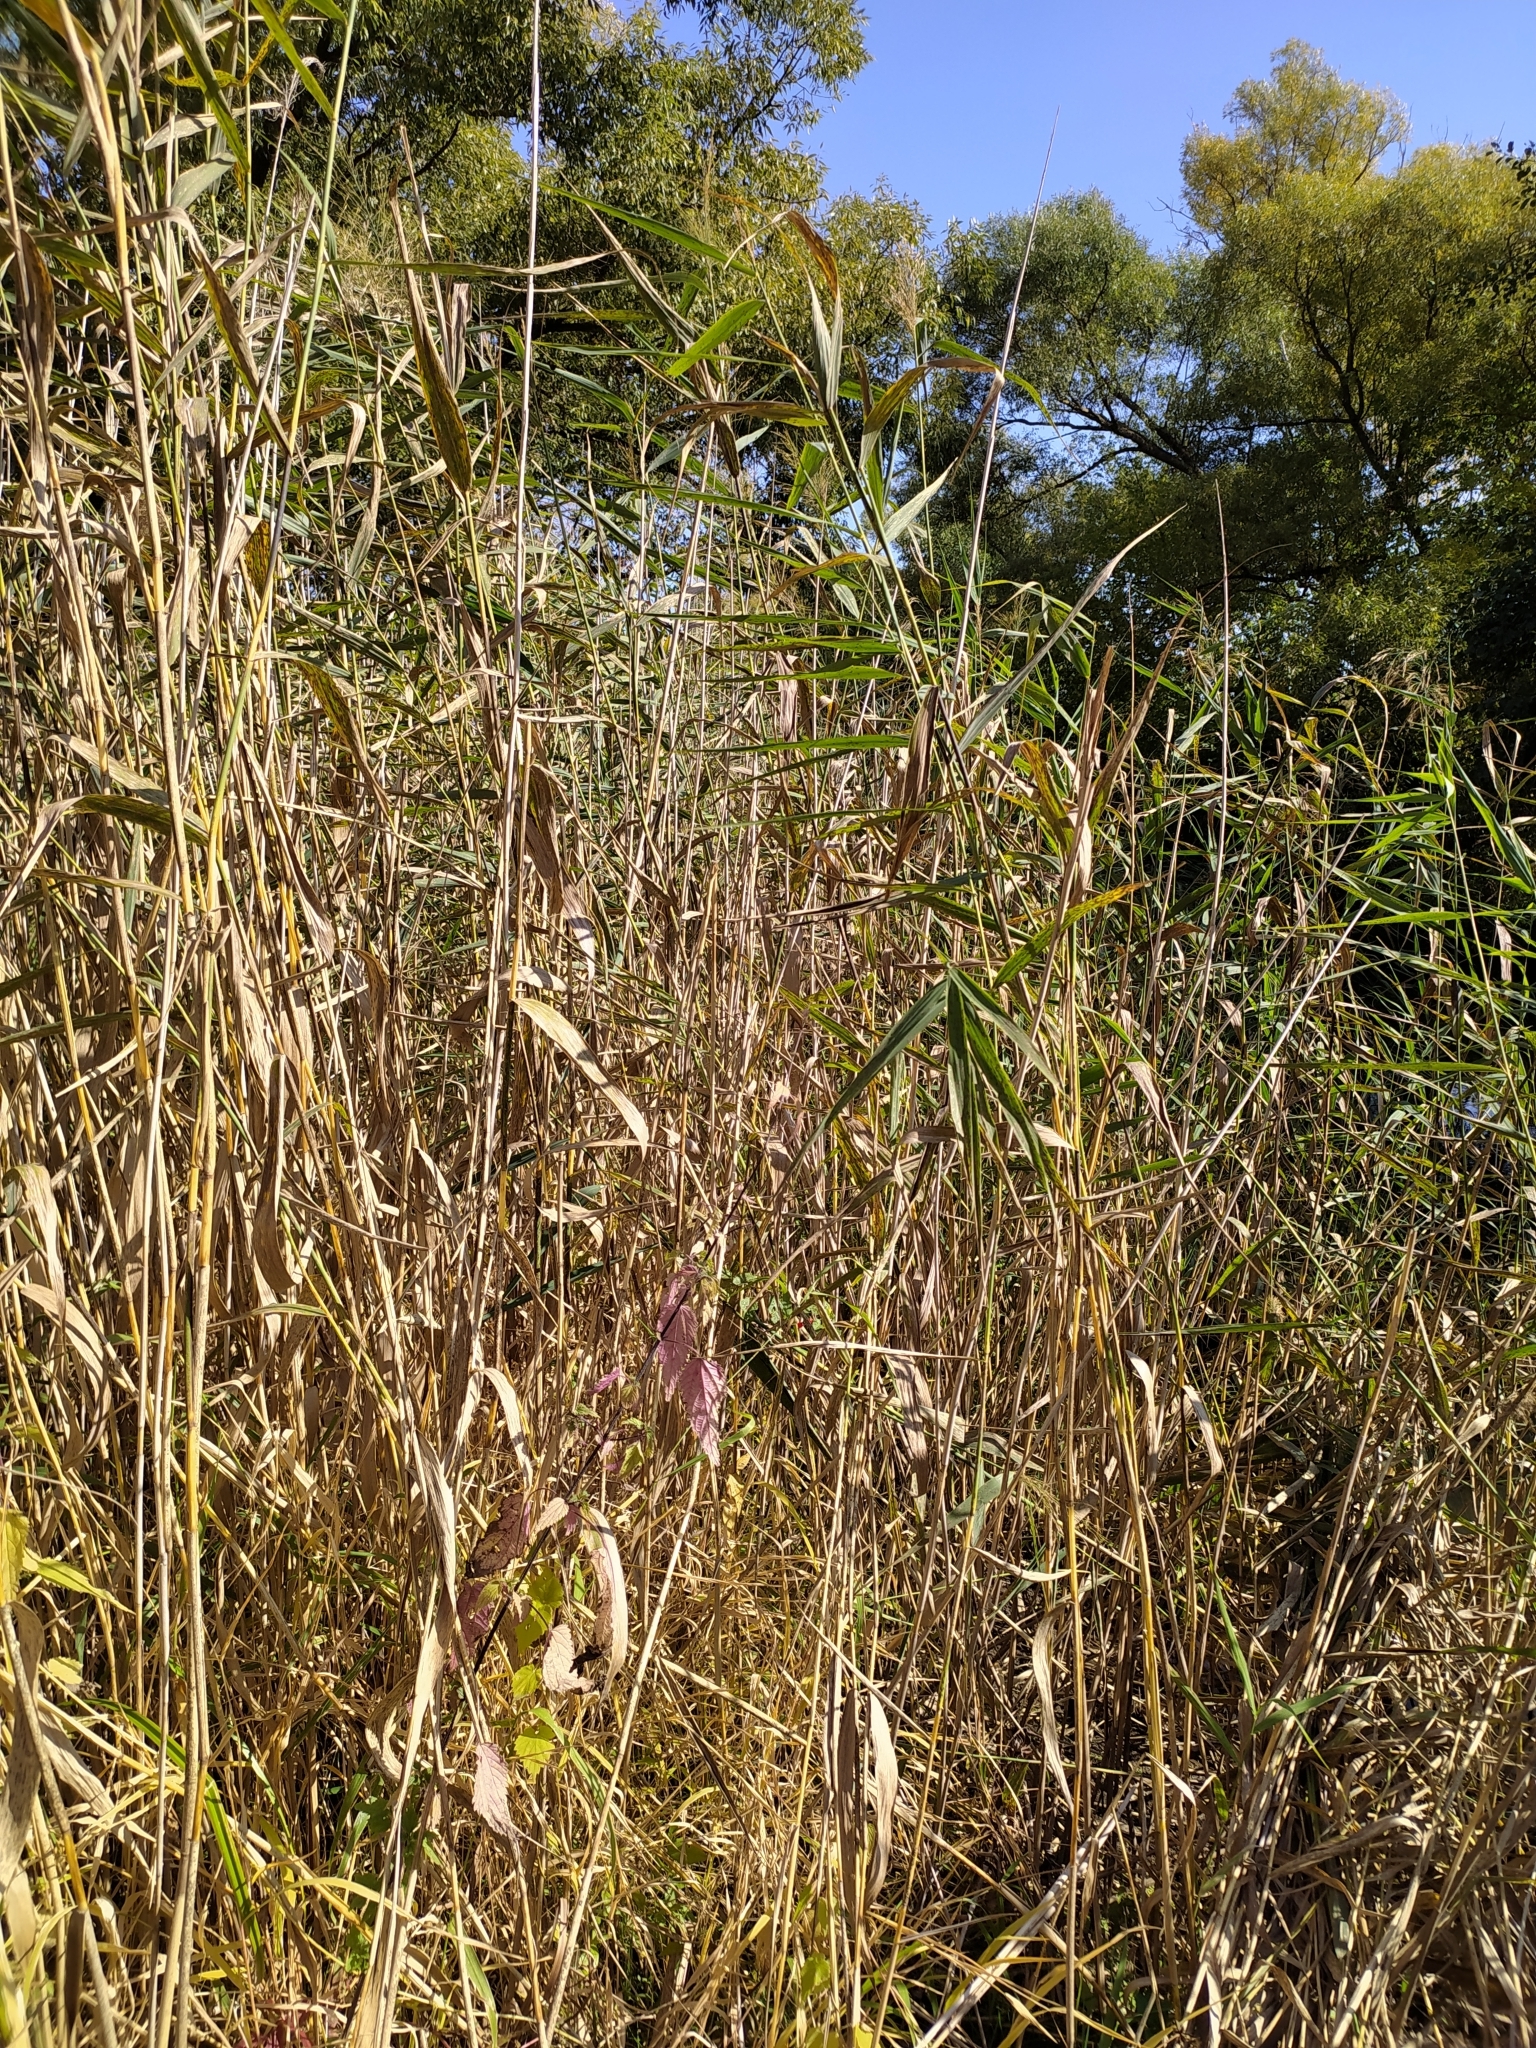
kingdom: Plantae
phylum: Tracheophyta
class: Liliopsida
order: Poales
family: Poaceae
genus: Phragmites
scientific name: Phragmites australis
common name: Common reed
